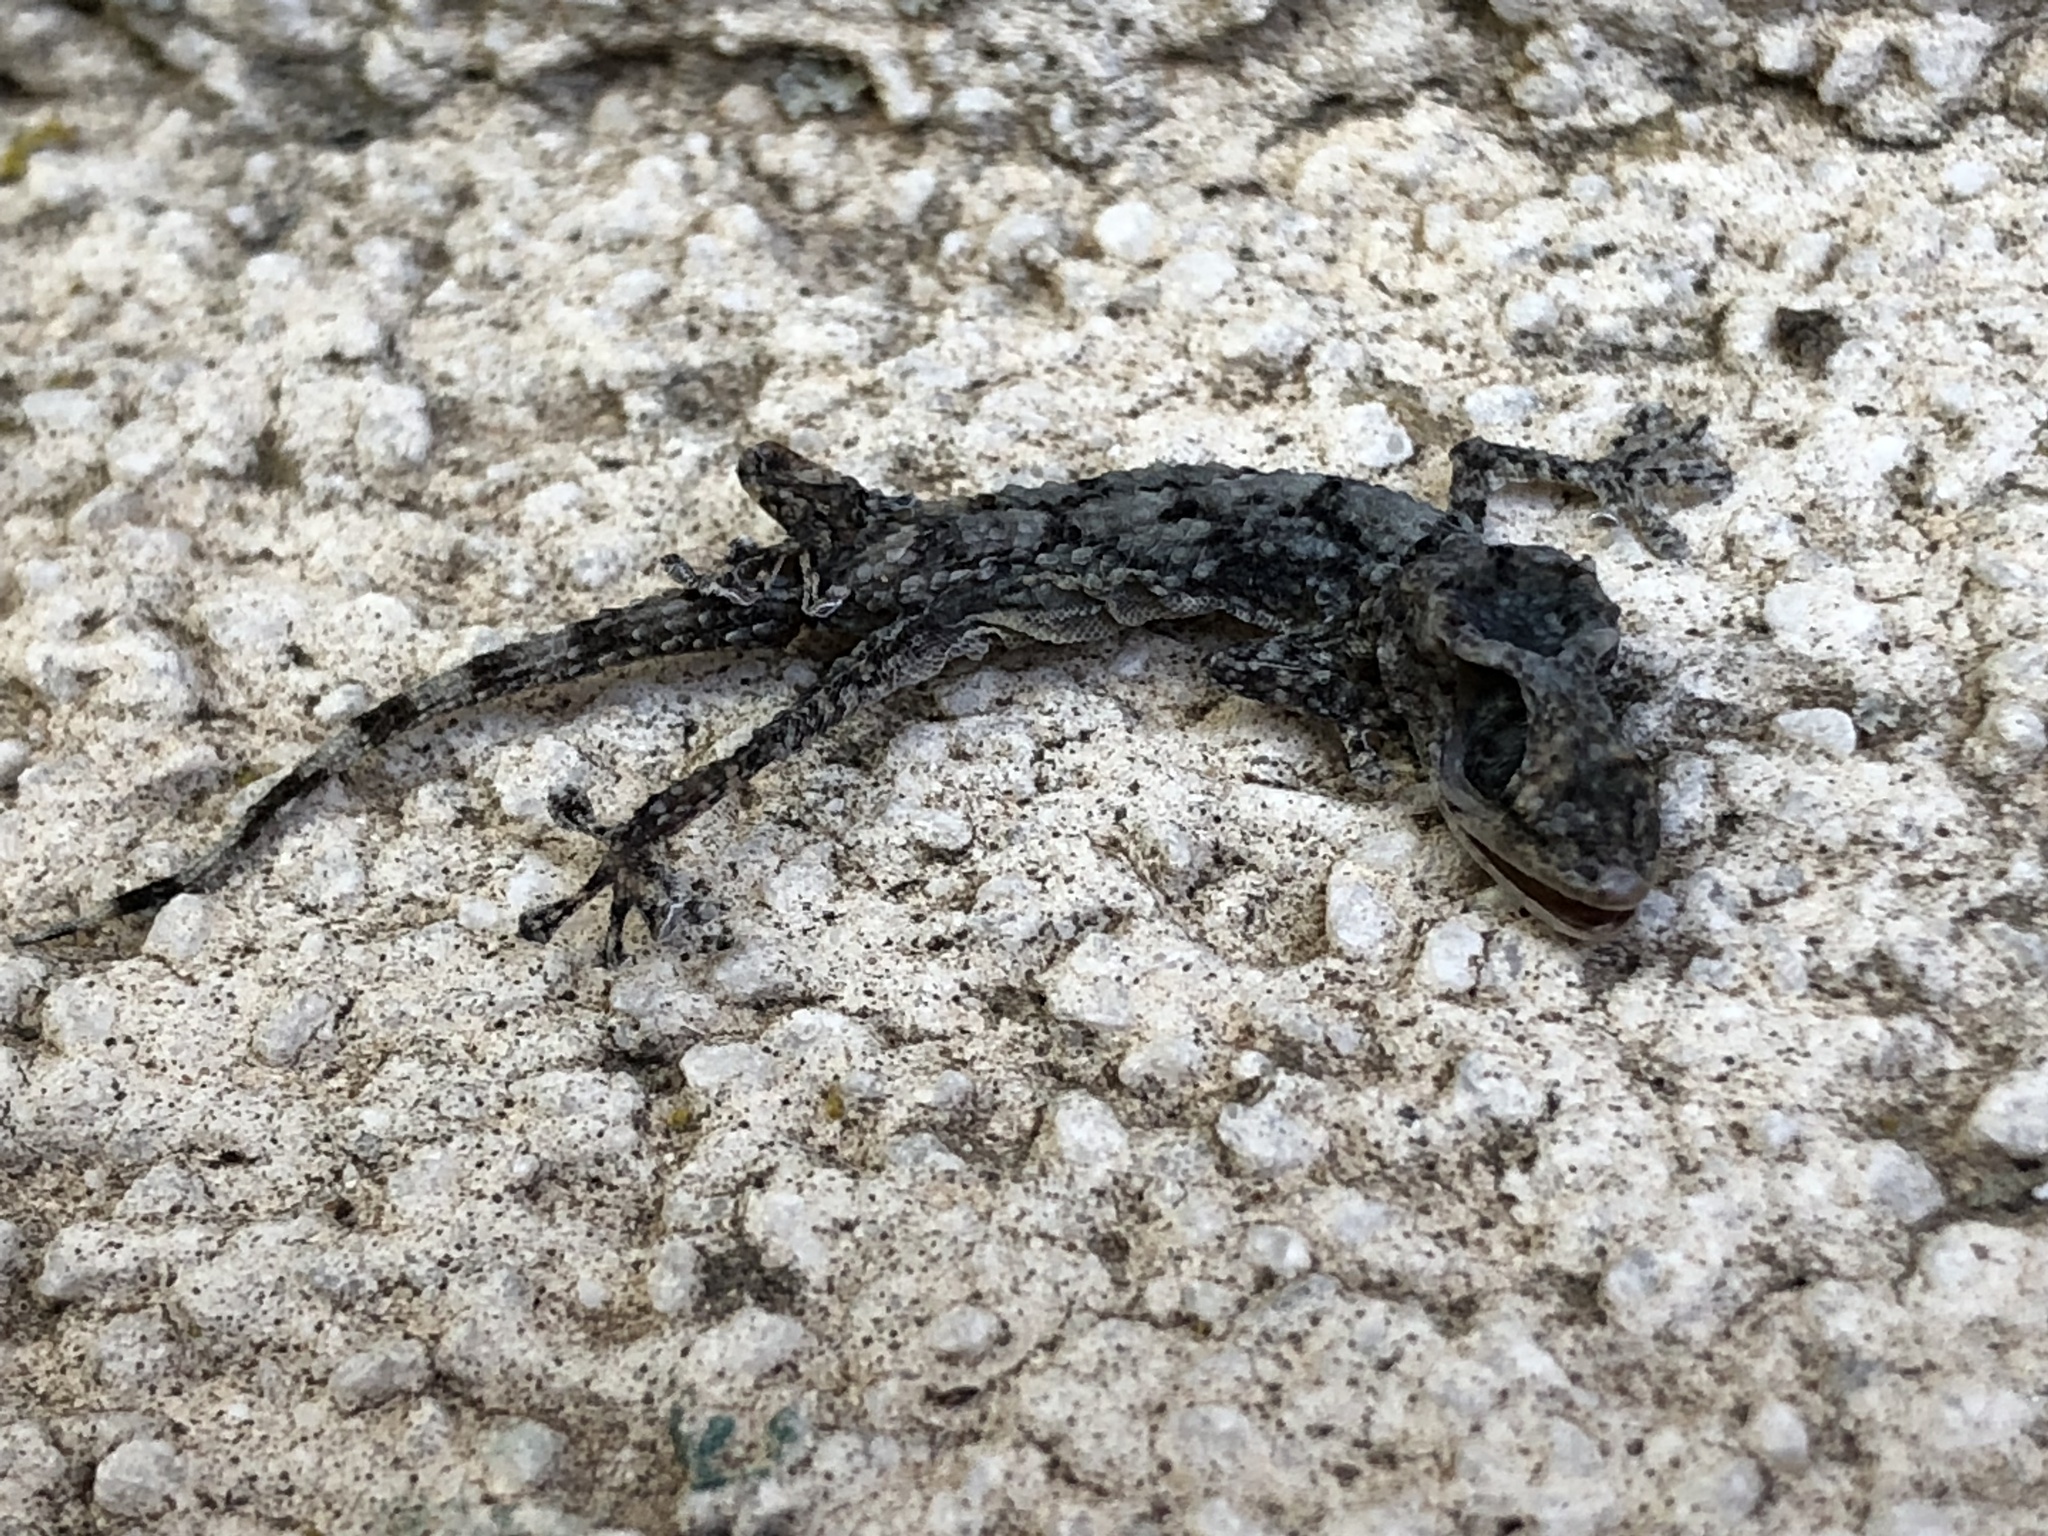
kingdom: Animalia
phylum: Chordata
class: Squamata
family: Phyllodactylidae
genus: Tarentola
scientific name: Tarentola mauritanica
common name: Moorish gecko
